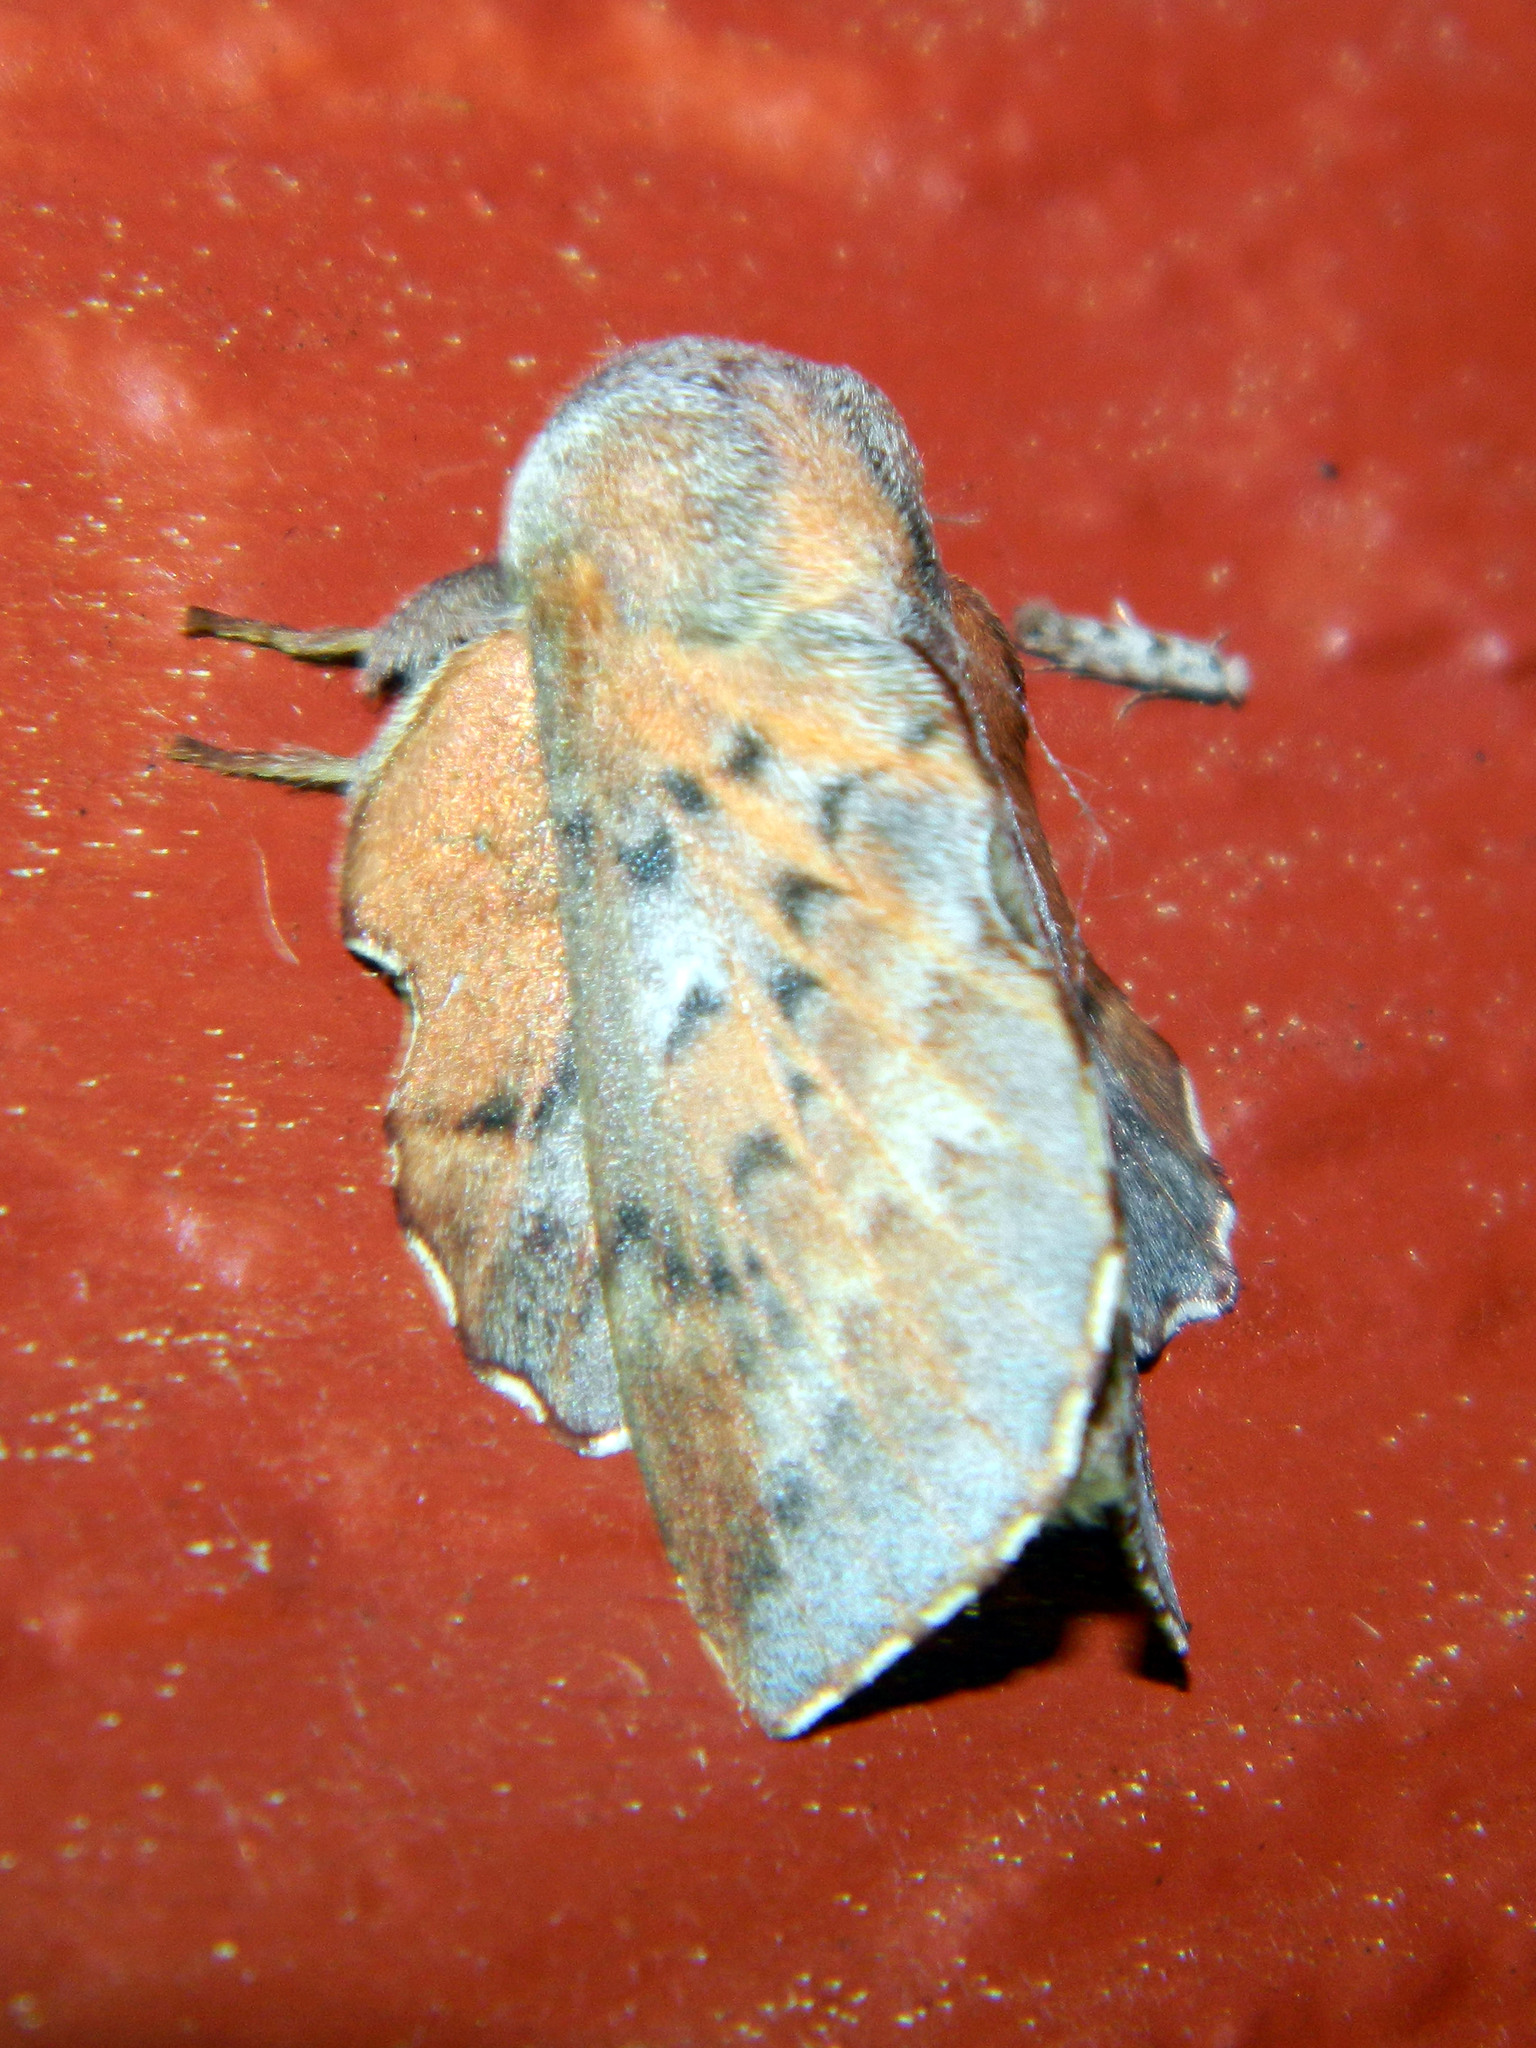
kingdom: Animalia
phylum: Arthropoda
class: Insecta
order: Lepidoptera
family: Lasiocampidae
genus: Phyllodesma
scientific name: Phyllodesma americana
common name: American lappet moth
